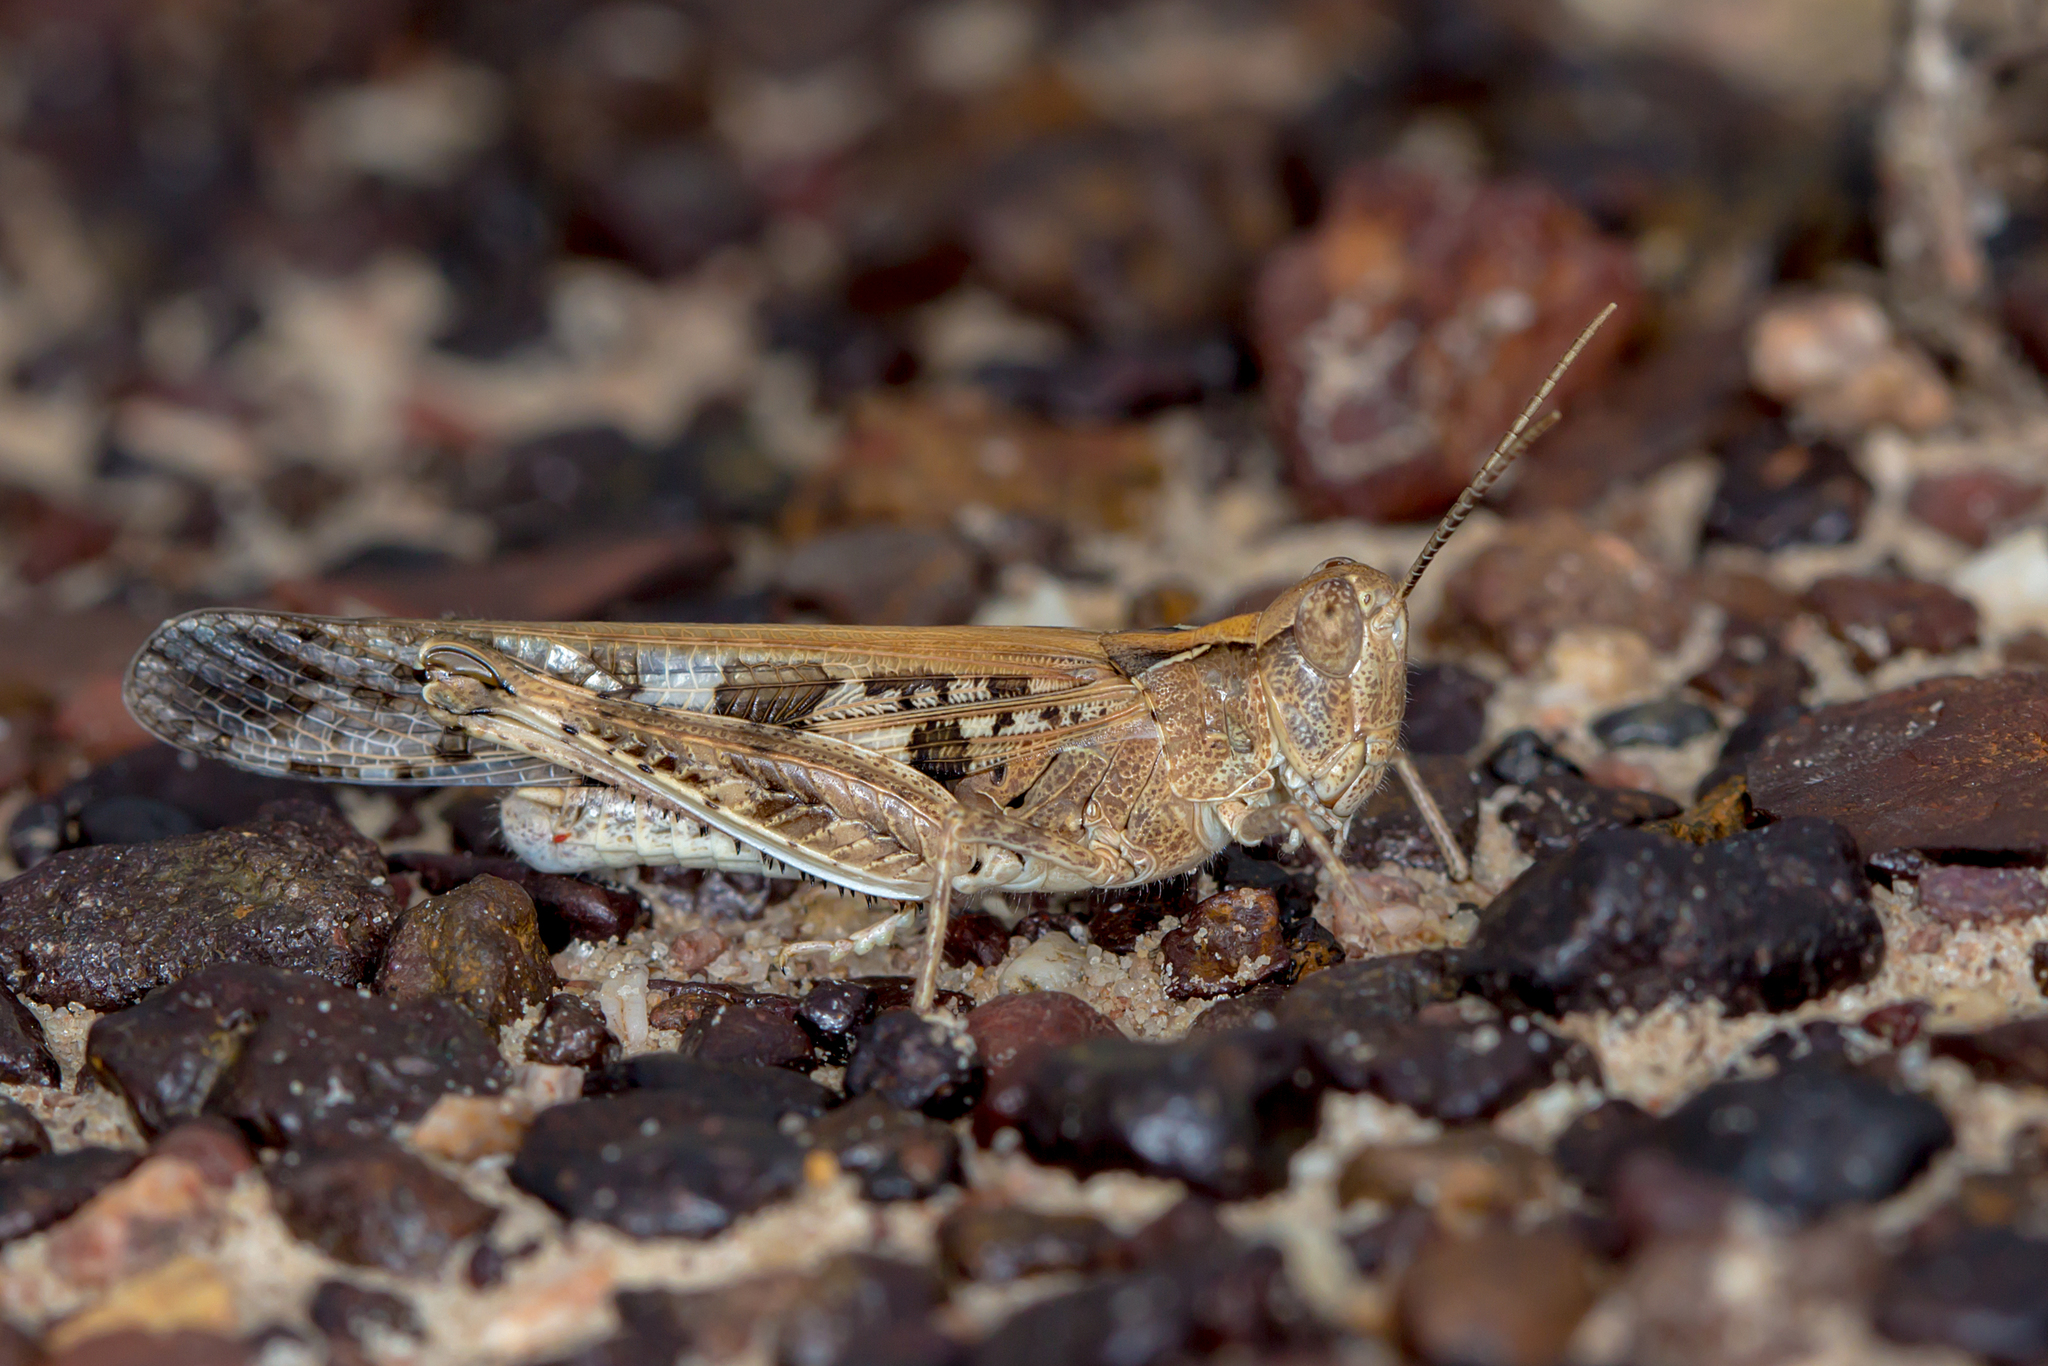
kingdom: Animalia
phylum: Arthropoda
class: Insecta
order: Orthoptera
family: Acrididae
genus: Chortoicetes
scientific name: Chortoicetes terminifera
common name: Australian plague locust
